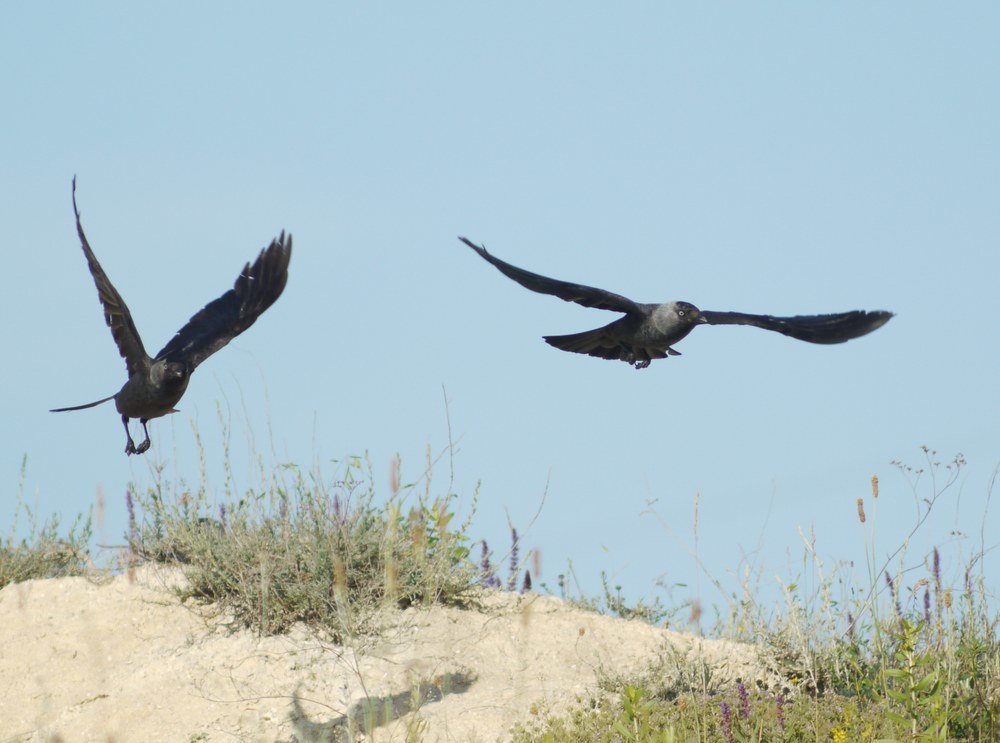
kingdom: Animalia
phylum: Chordata
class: Aves
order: Passeriformes
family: Corvidae
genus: Coloeus
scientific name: Coloeus monedula
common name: Western jackdaw
